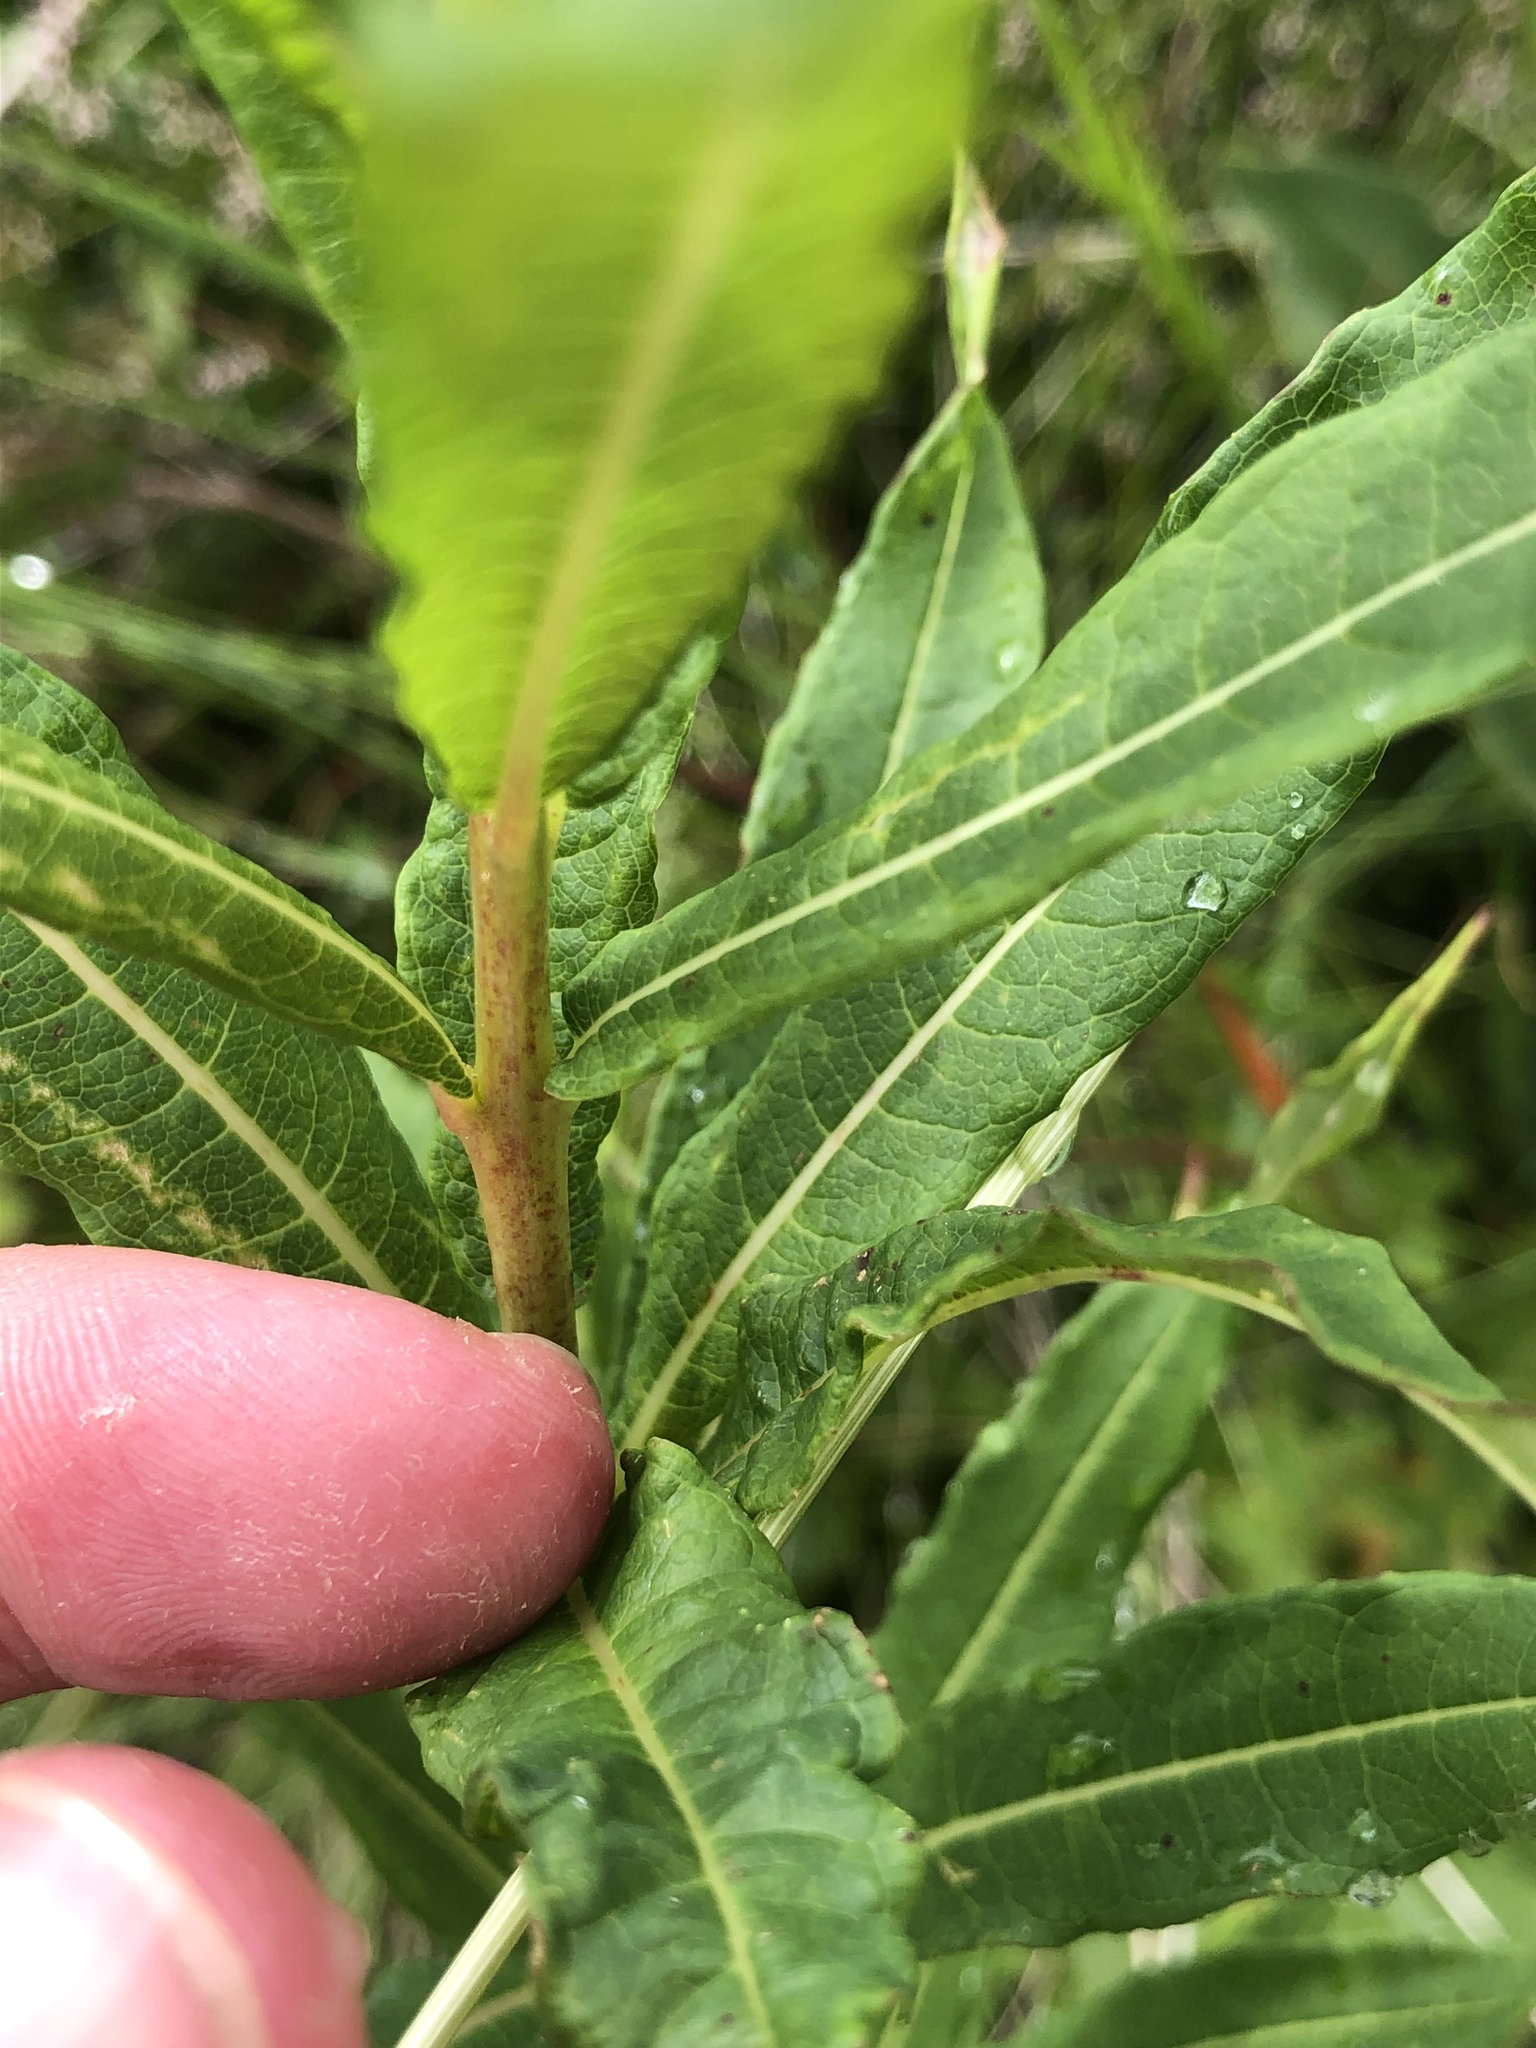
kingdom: Plantae
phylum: Tracheophyta
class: Magnoliopsida
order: Myrtales
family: Onagraceae
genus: Chamaenerion
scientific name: Chamaenerion angustifolium
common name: Fireweed
